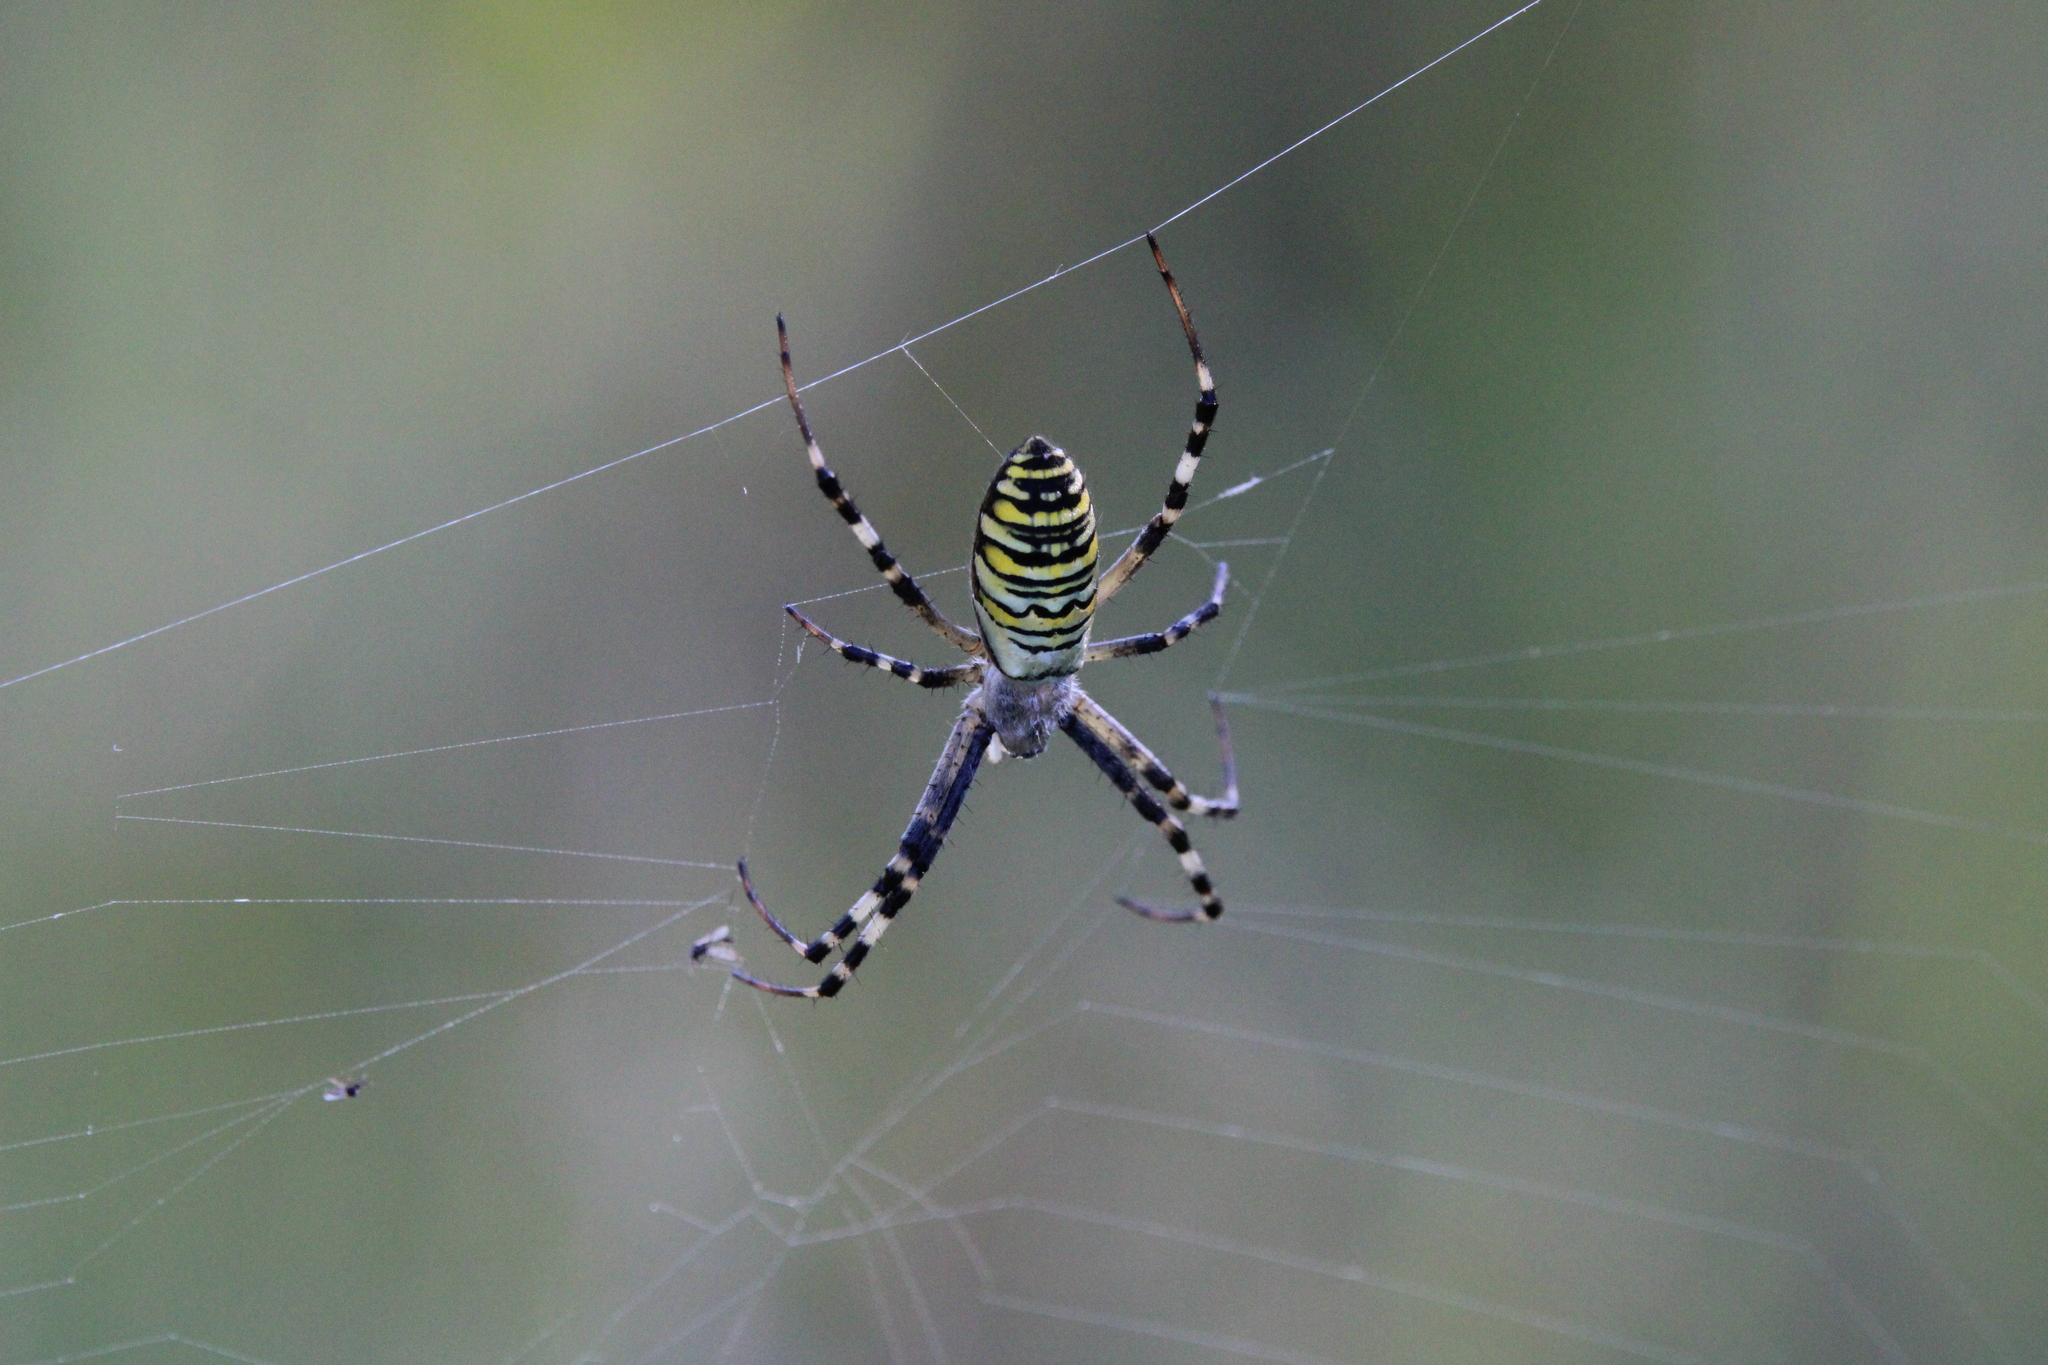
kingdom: Animalia
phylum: Arthropoda
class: Arachnida
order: Araneae
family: Araneidae
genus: Argiope
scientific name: Argiope bruennichi
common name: Wasp spider
